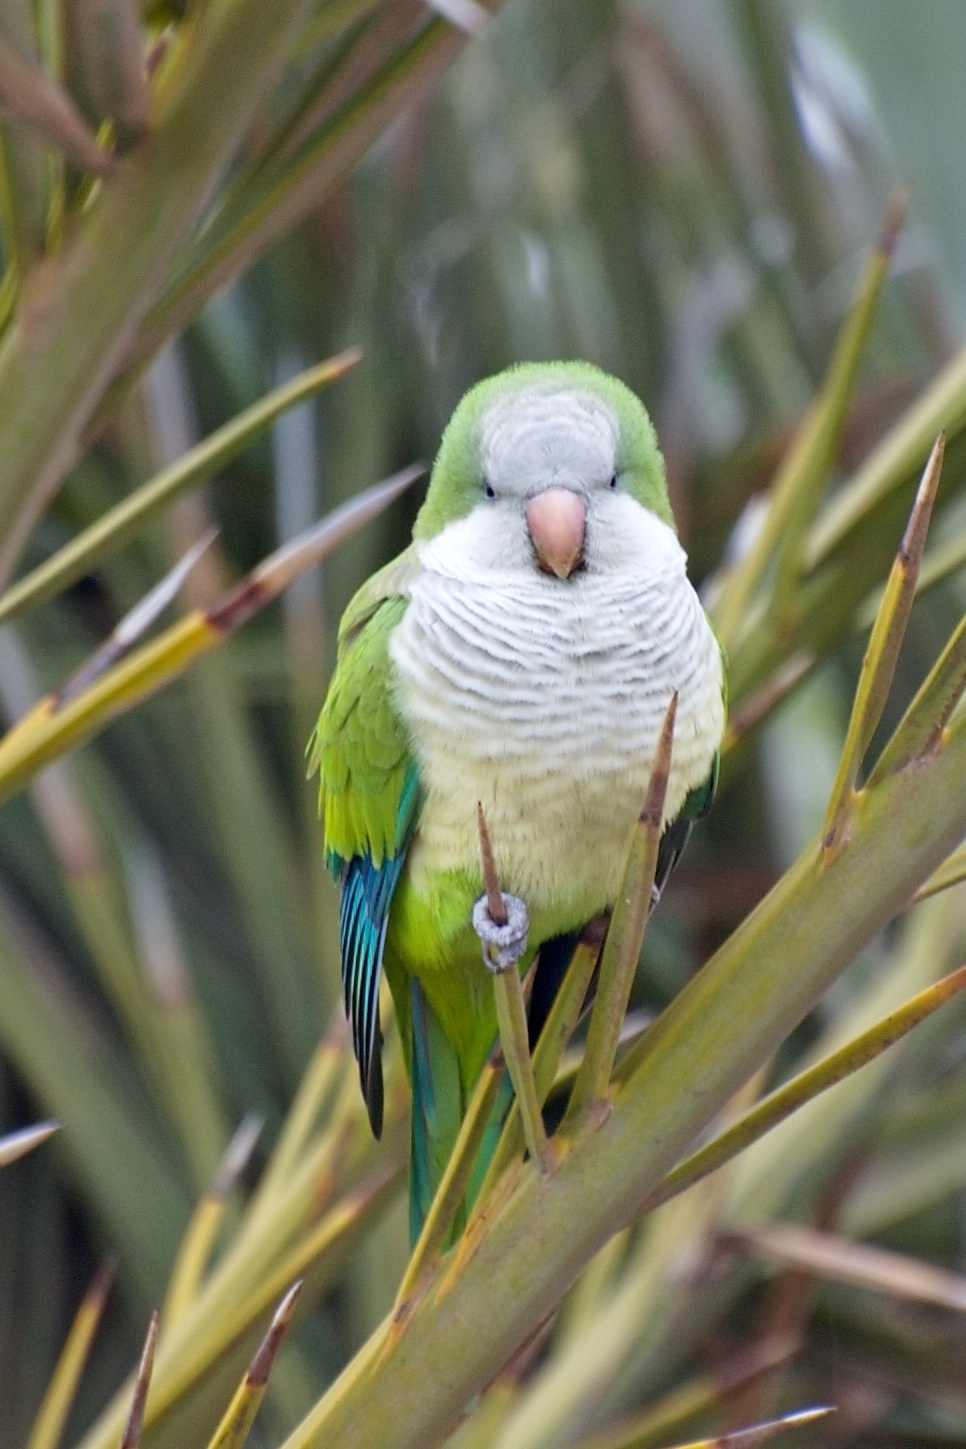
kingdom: Animalia
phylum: Chordata
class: Aves
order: Psittaciformes
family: Psittacidae
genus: Myiopsitta
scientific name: Myiopsitta monachus
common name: Monk parakeet
